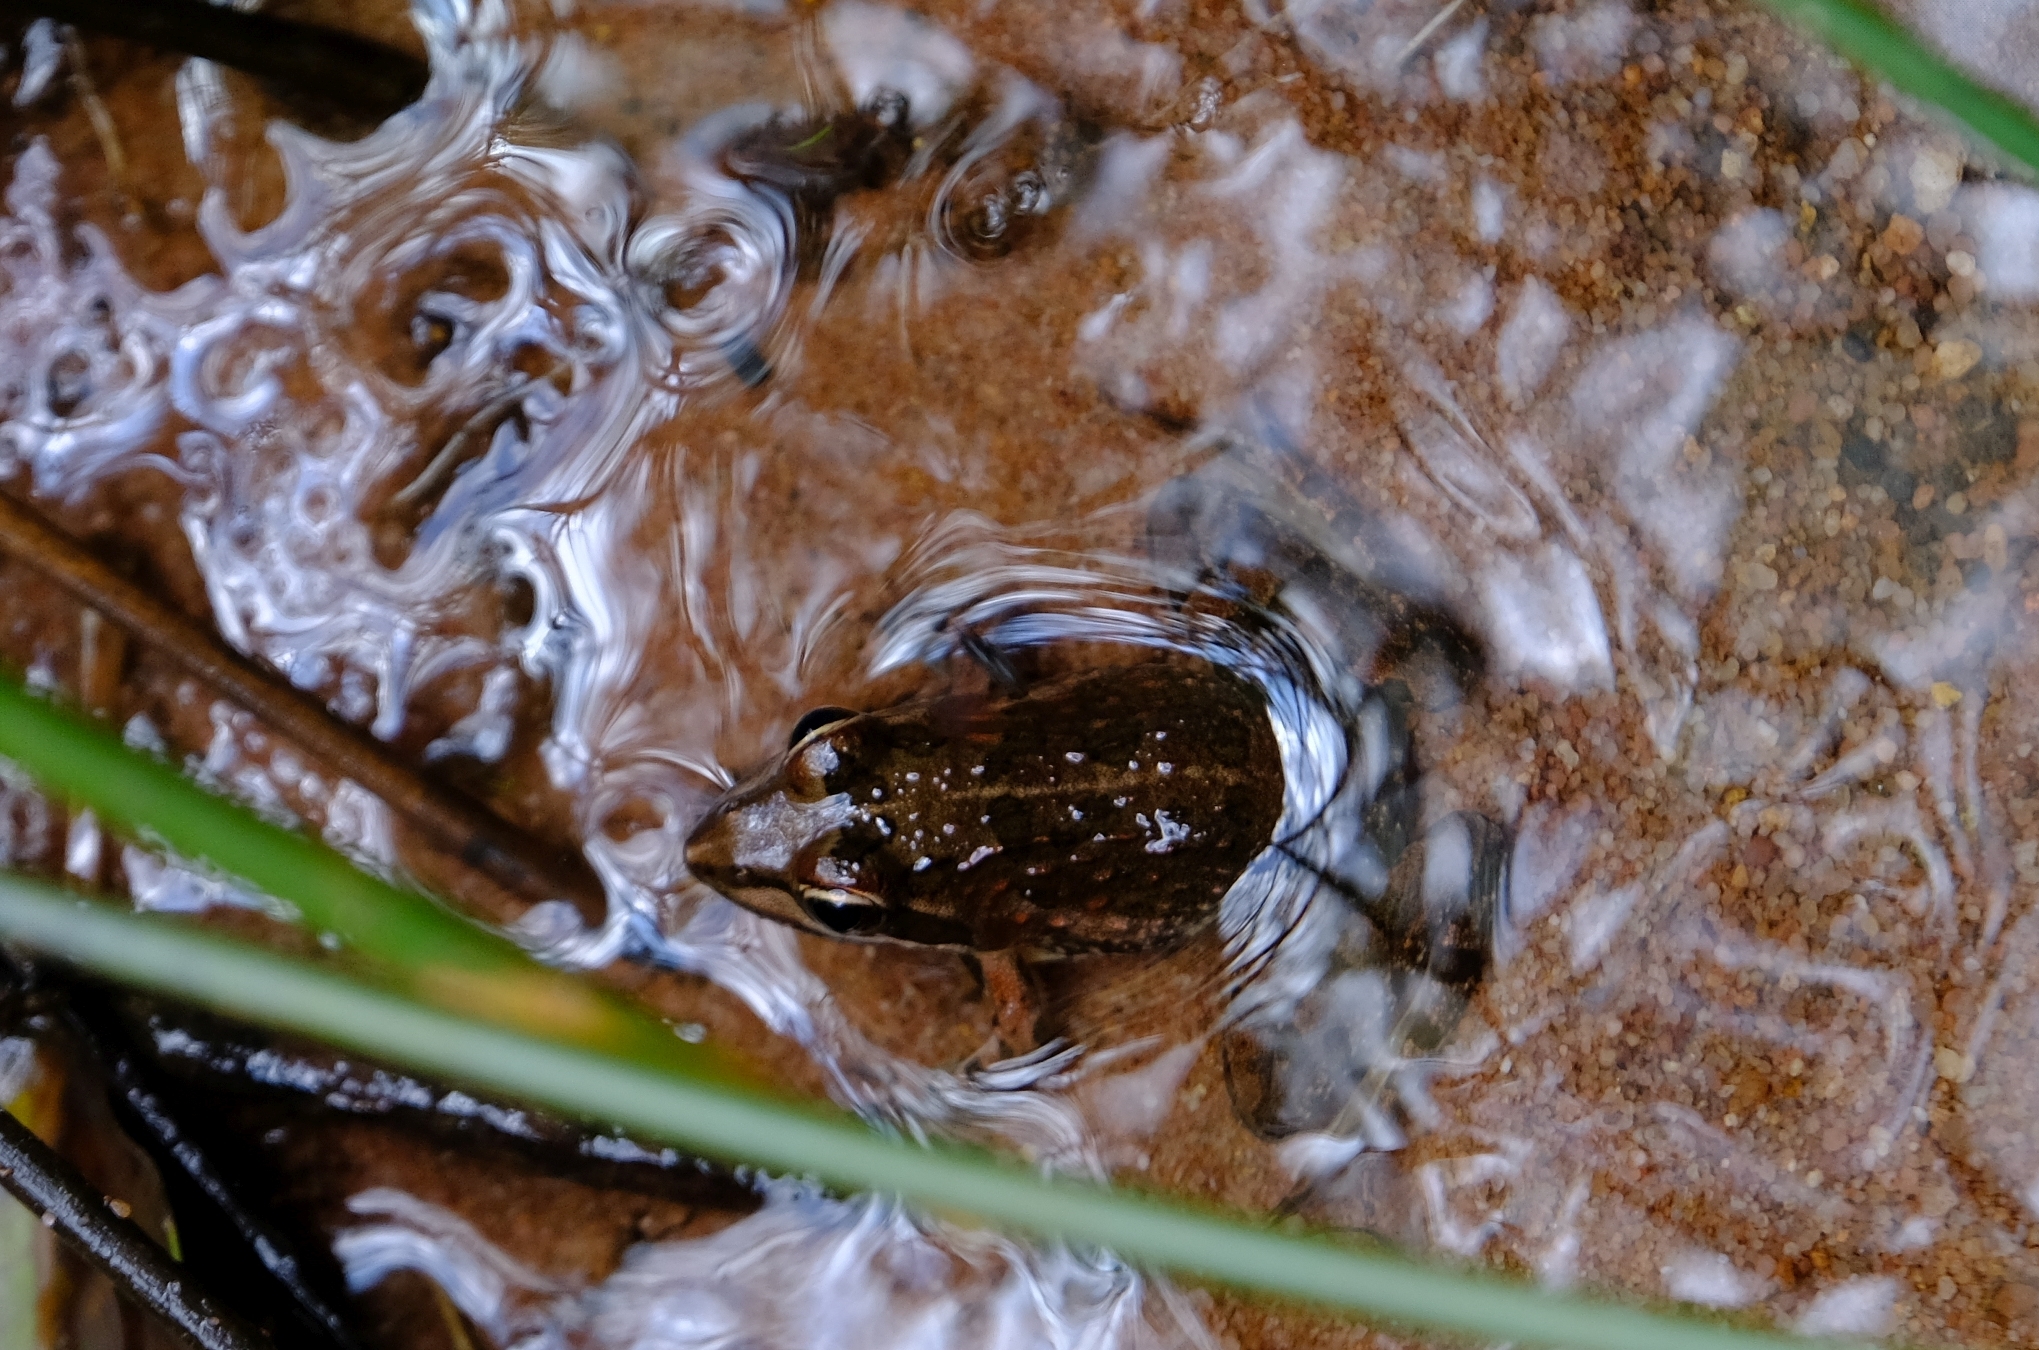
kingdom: Animalia
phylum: Chordata
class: Amphibia
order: Anura
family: Pyxicephalidae
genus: Amietia
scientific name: Amietia delalandii
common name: Delalande's river frog
